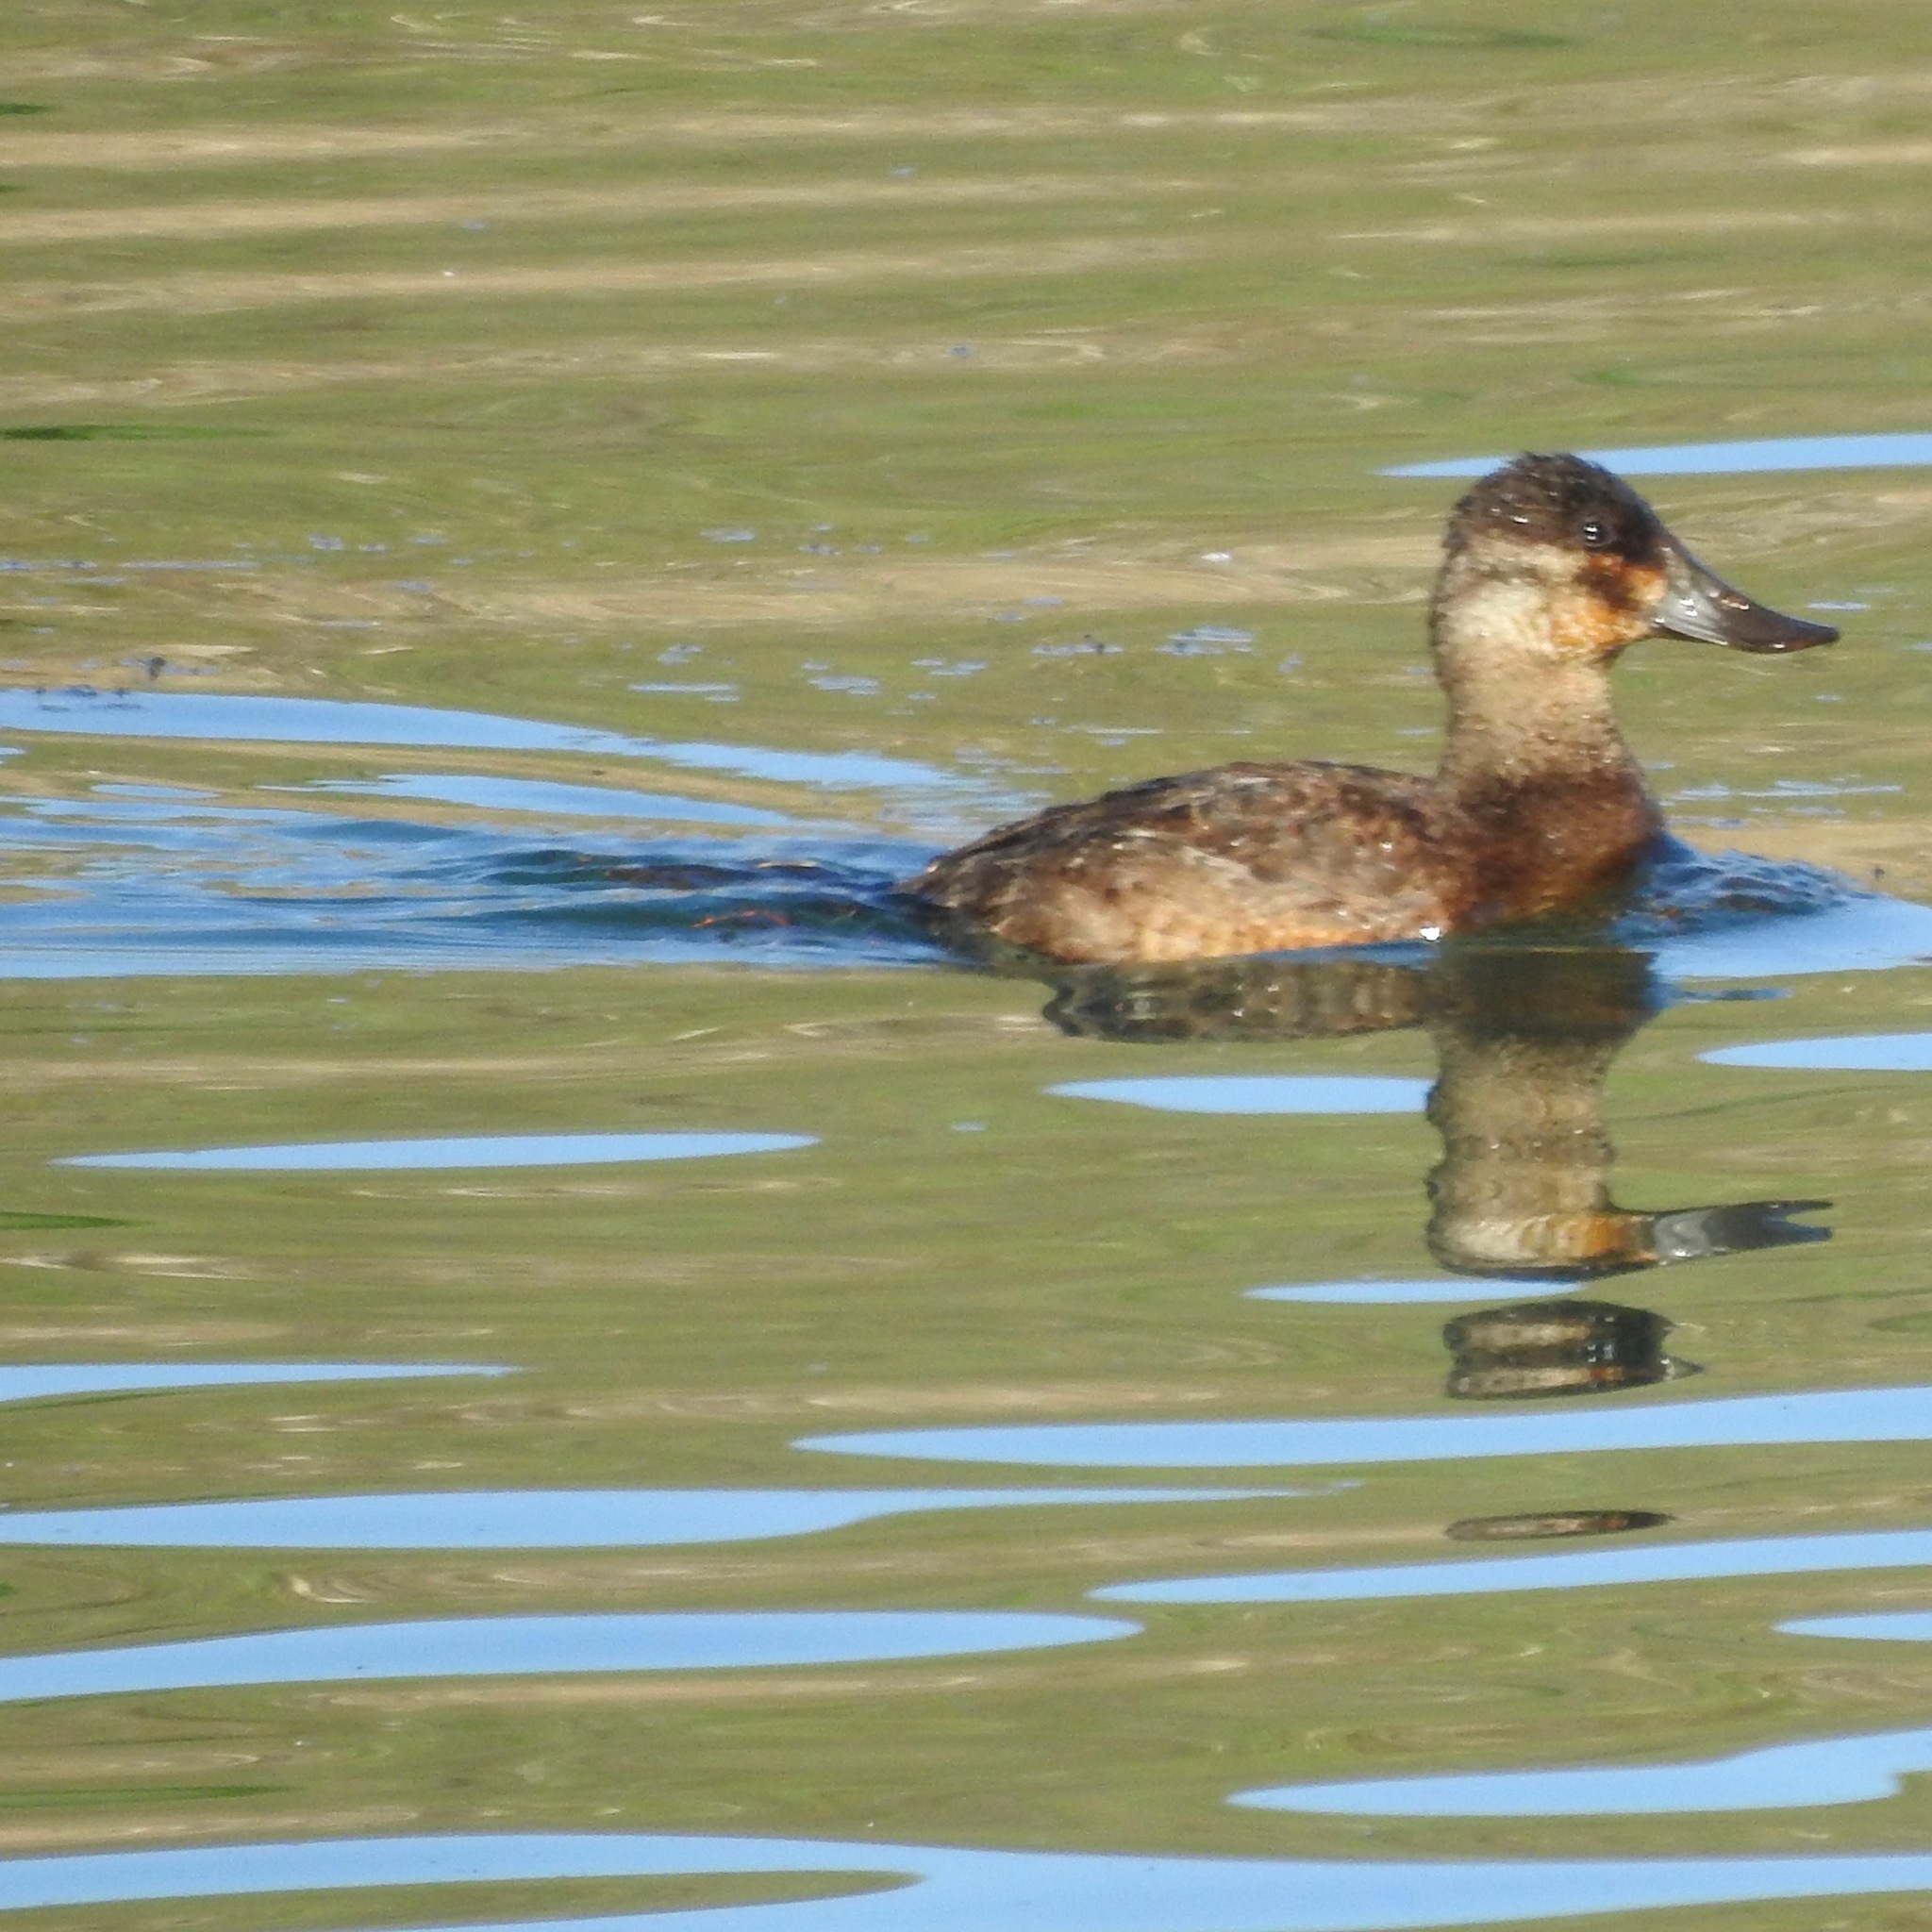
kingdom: Animalia
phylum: Chordata
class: Aves
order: Anseriformes
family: Anatidae
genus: Oxyura
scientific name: Oxyura jamaicensis
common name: Ruddy duck
